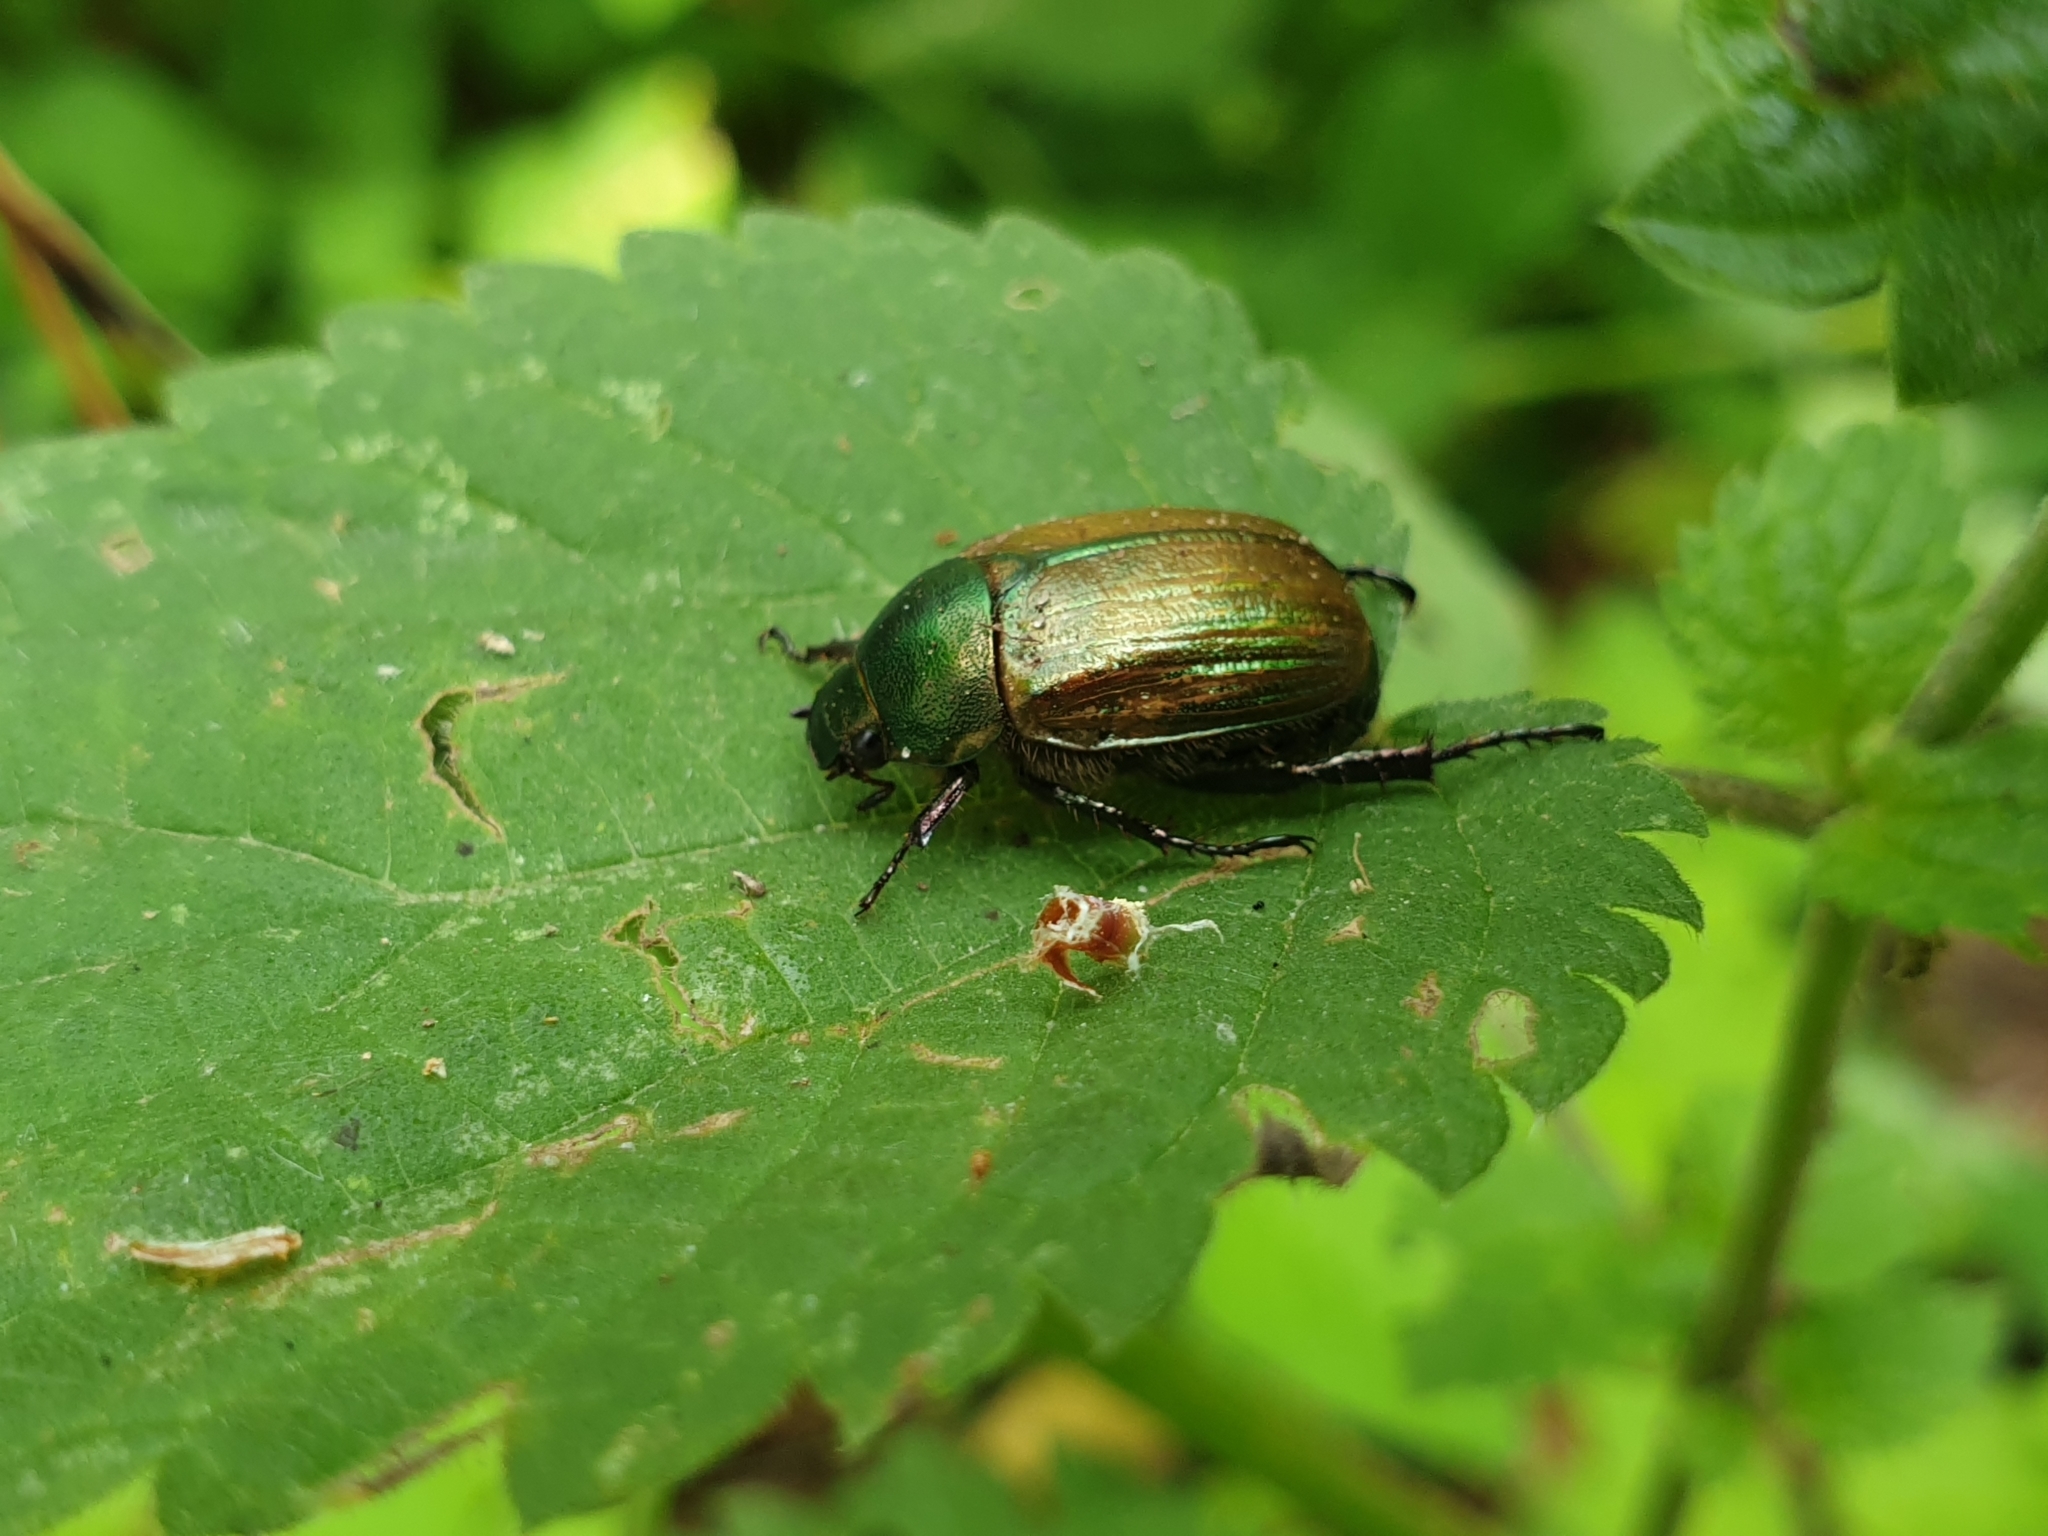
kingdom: Animalia
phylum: Arthropoda
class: Insecta
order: Coleoptera
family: Scarabaeidae
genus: Anomala
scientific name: Anomala dubia
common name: Dune chafer
